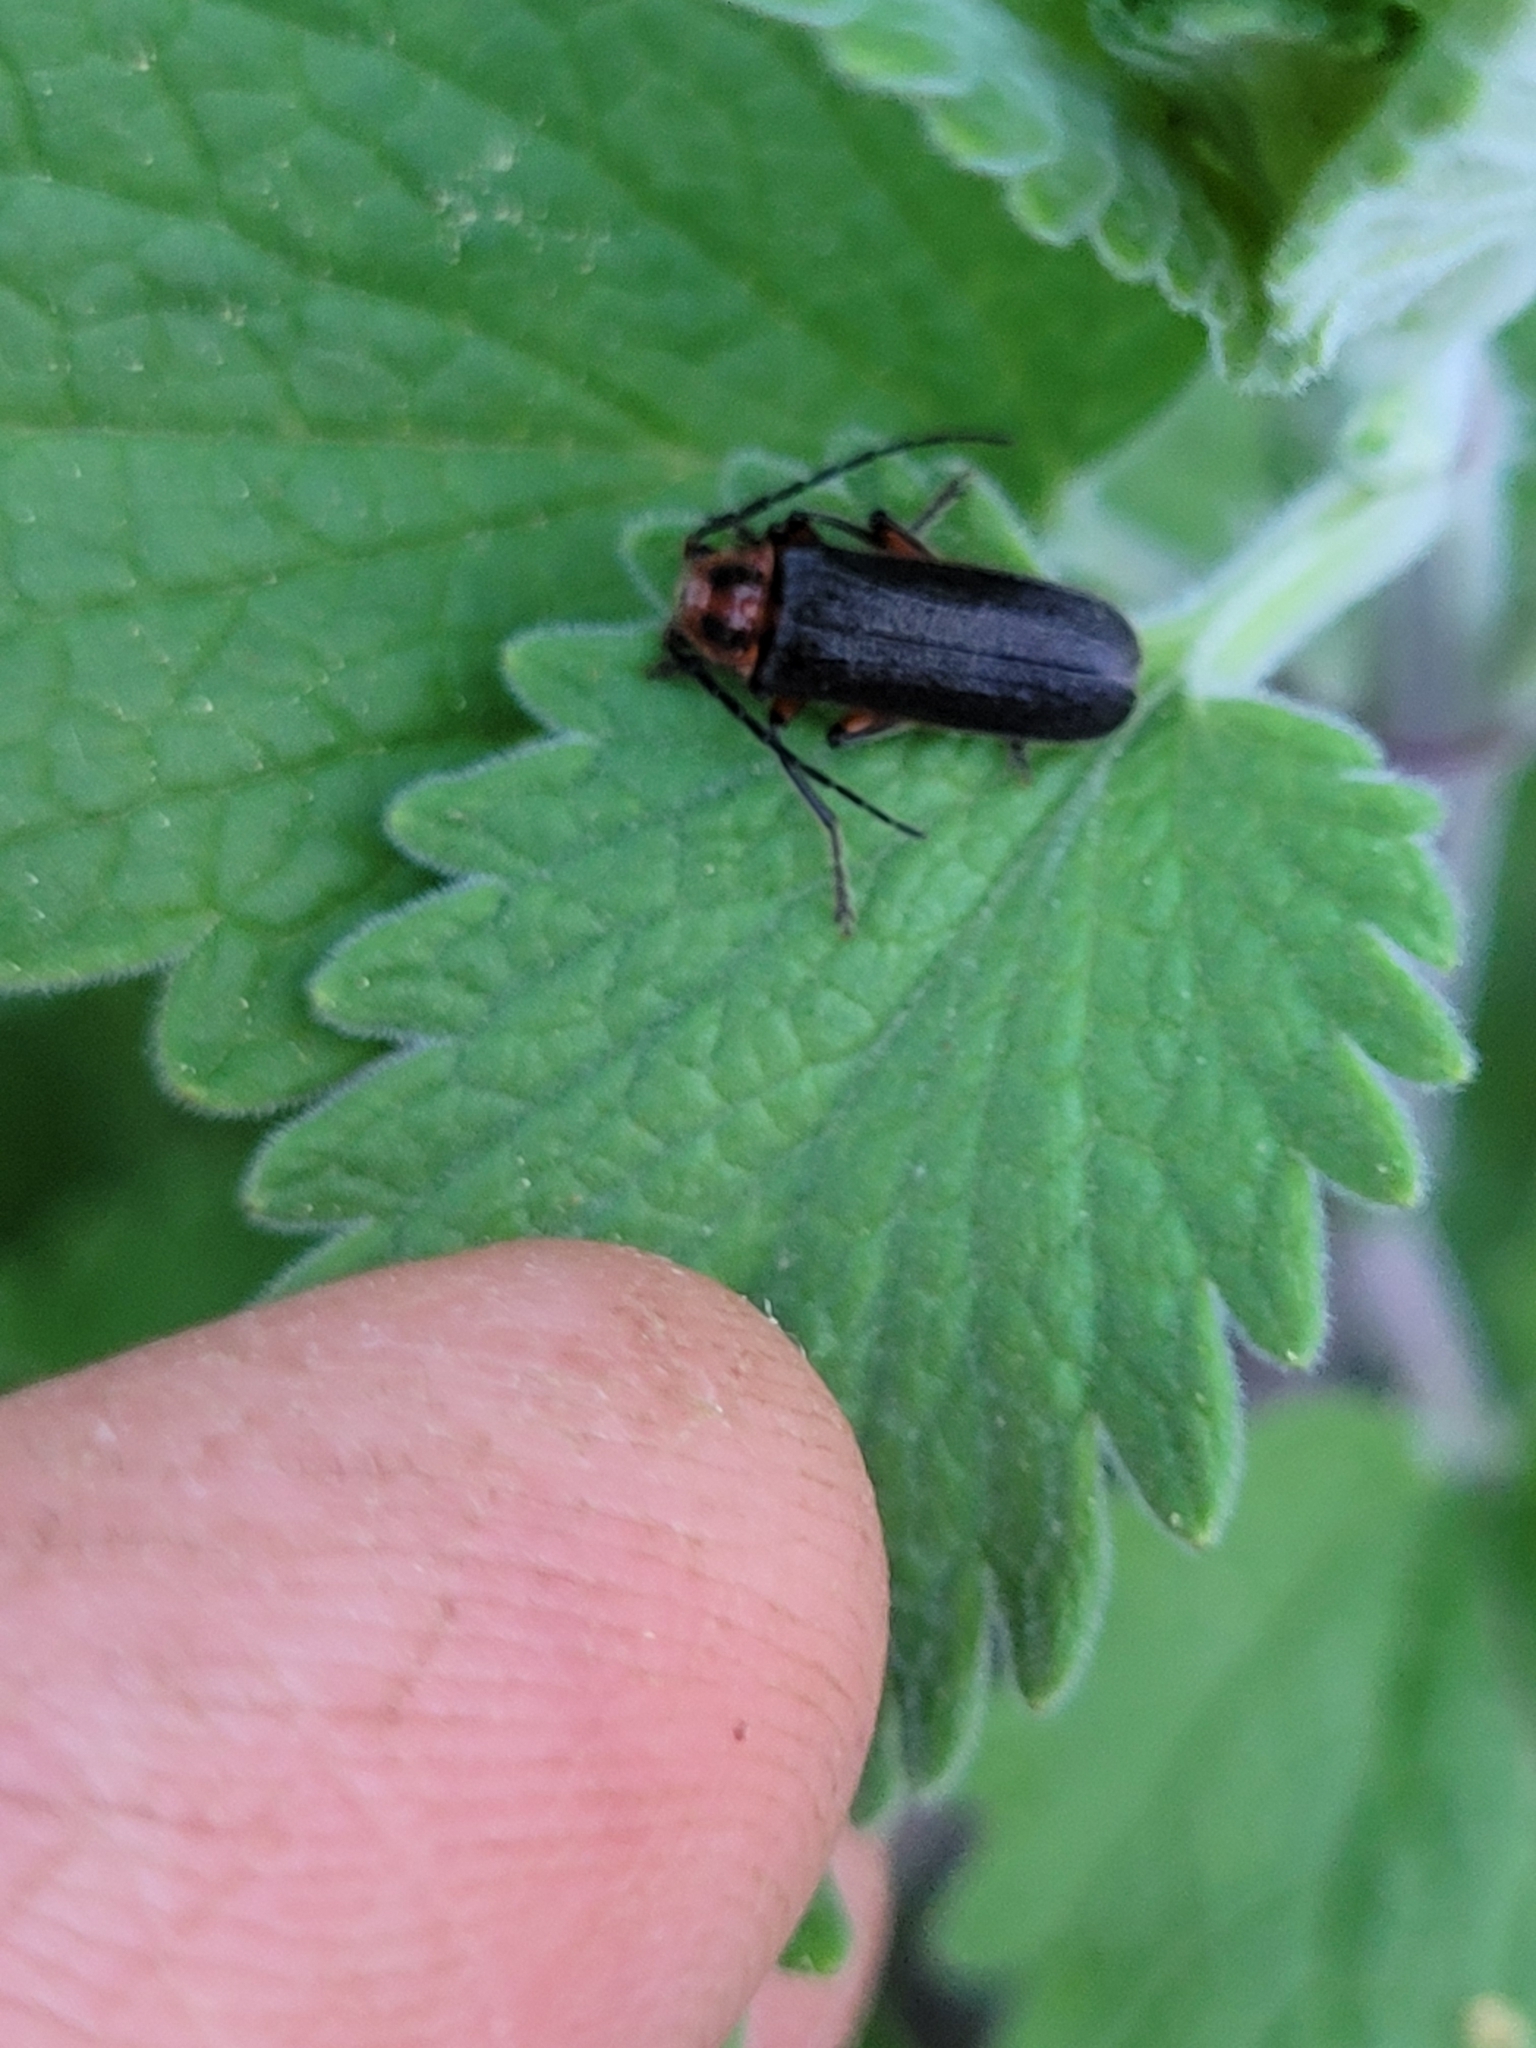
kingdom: Animalia
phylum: Arthropoda
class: Insecta
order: Coleoptera
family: Cantharidae
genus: Atalantycha
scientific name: Atalantycha bilineata
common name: Two-lined leatherwing
